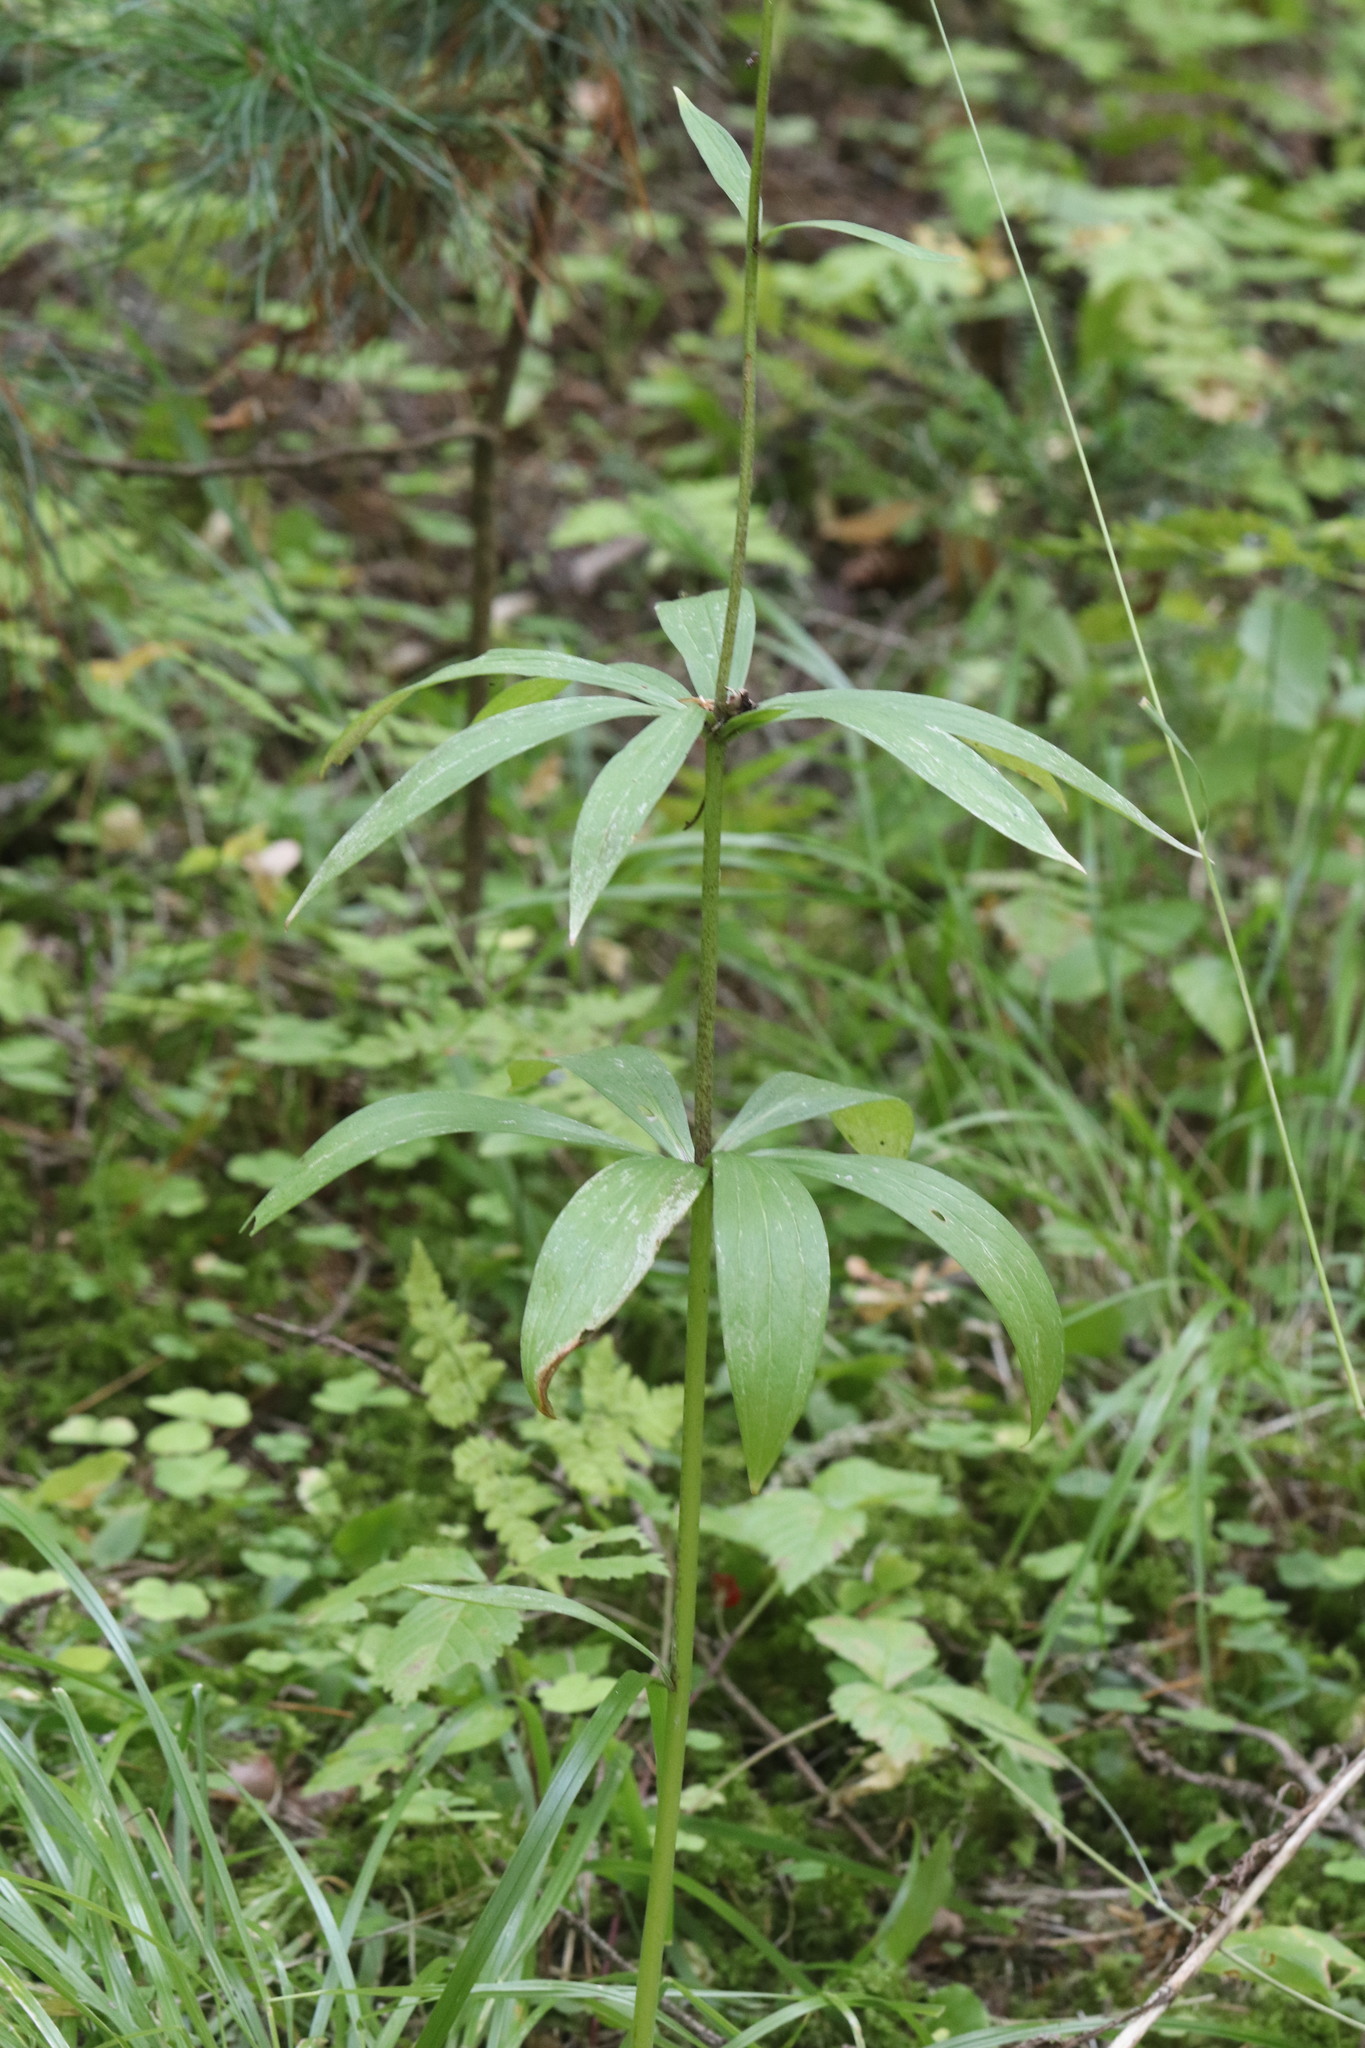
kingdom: Plantae
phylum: Tracheophyta
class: Liliopsida
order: Liliales
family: Liliaceae
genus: Lilium
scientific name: Lilium martagon
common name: Martagon lily
